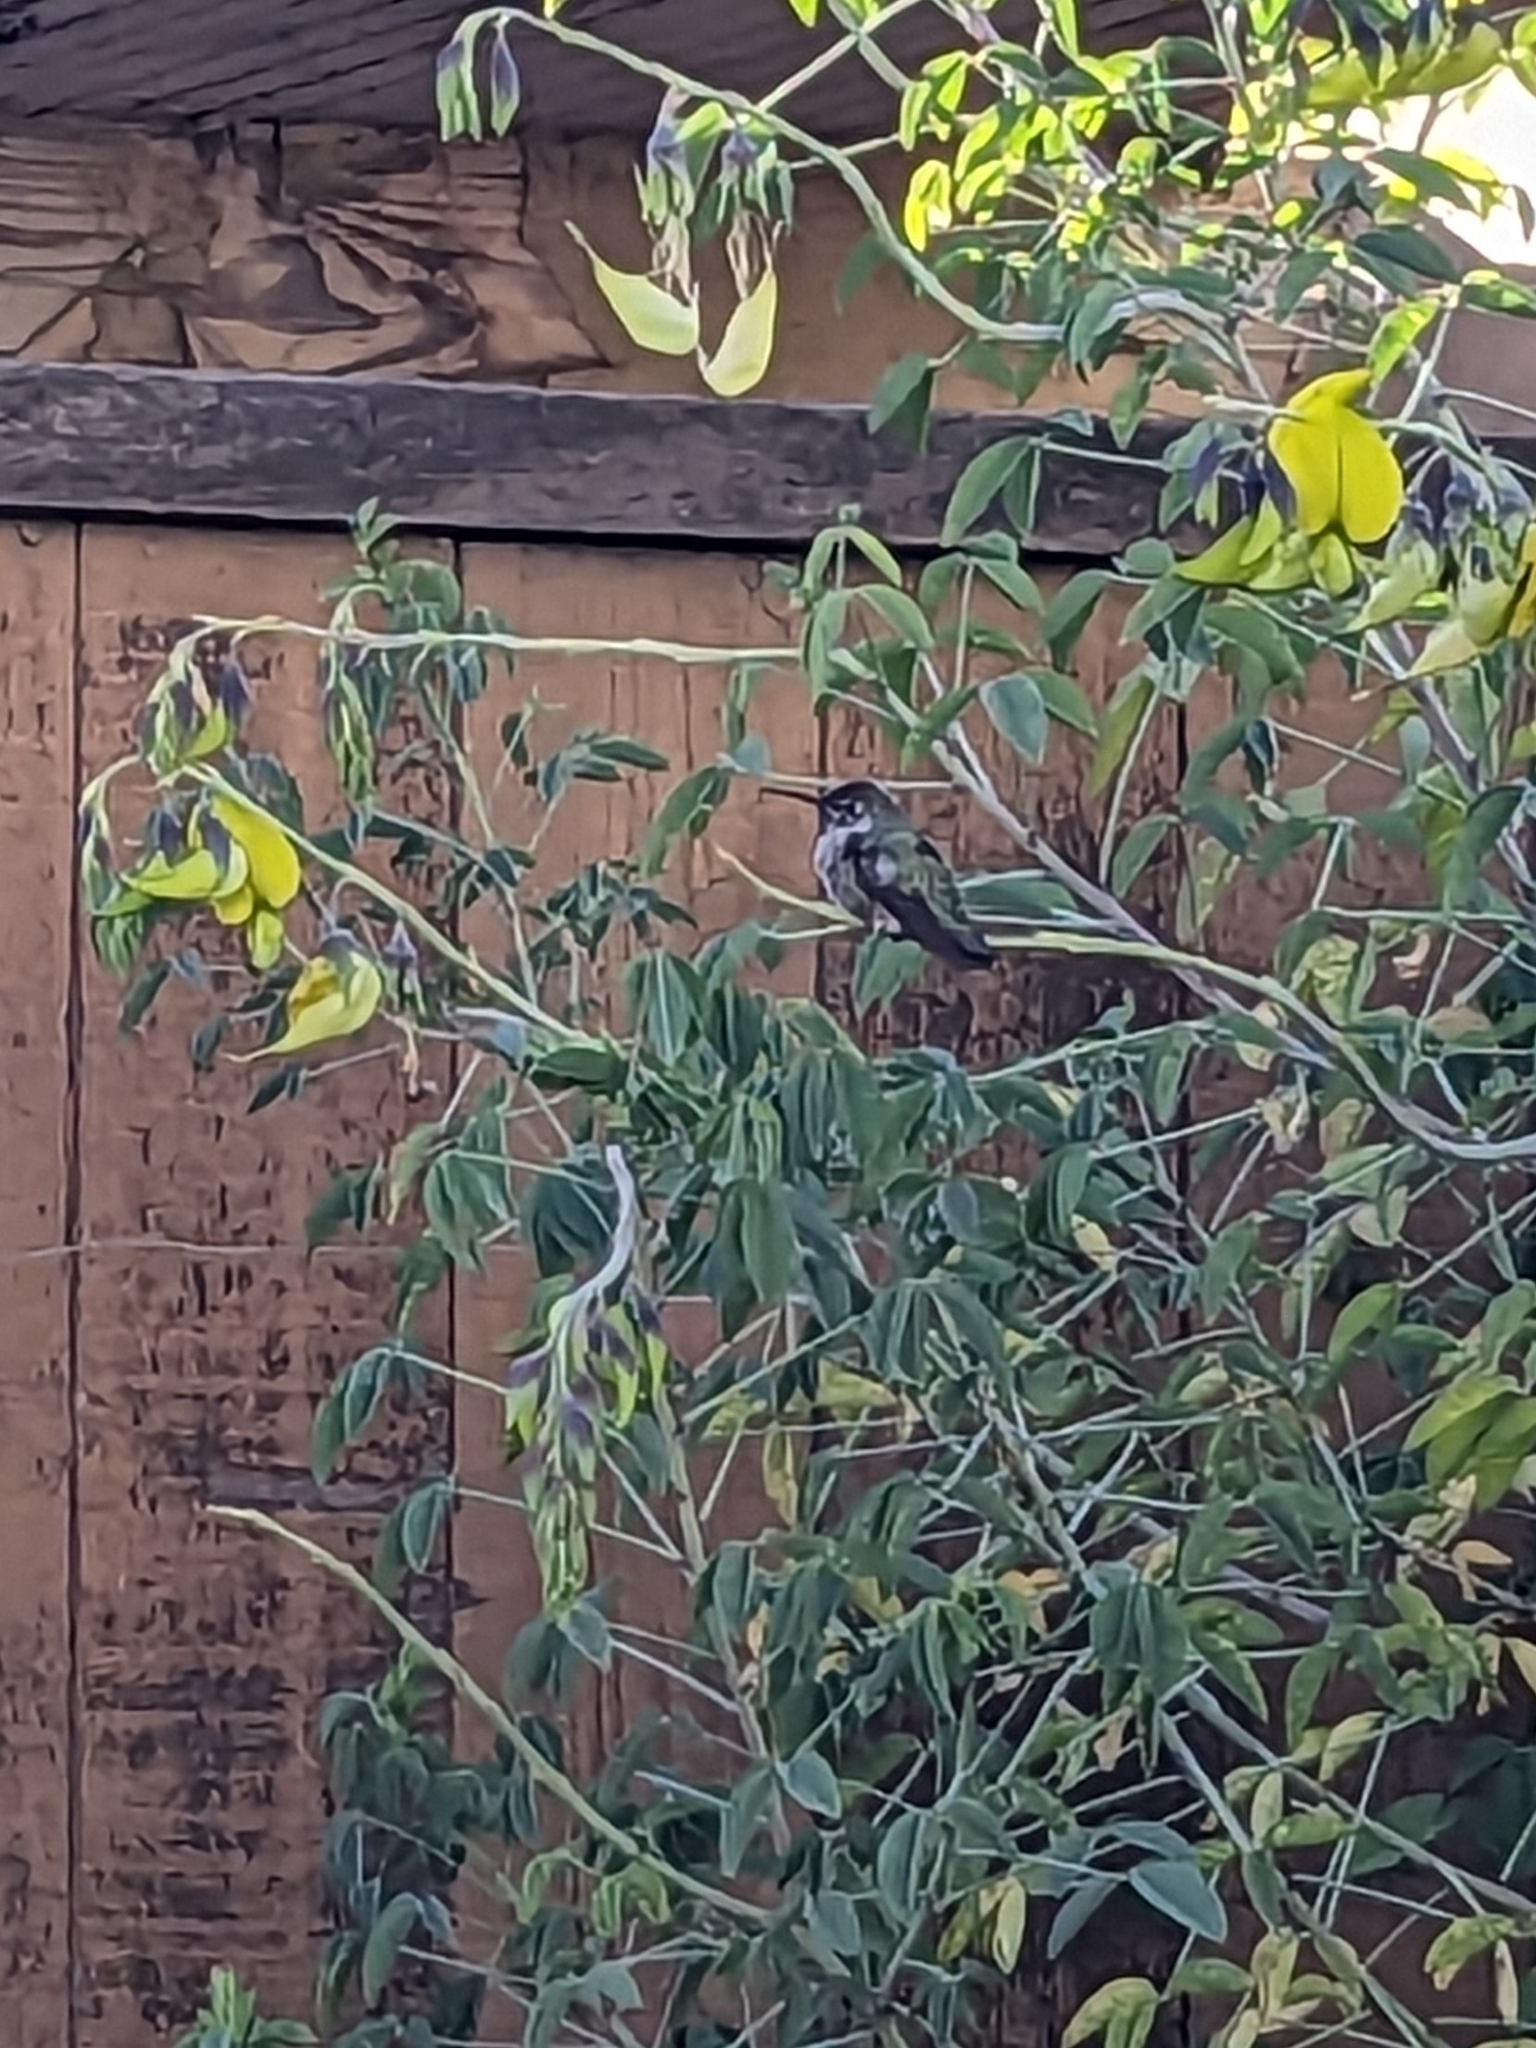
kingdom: Animalia
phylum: Chordata
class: Aves
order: Apodiformes
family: Trochilidae
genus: Calypte
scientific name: Calypte anna
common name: Anna's hummingbird
